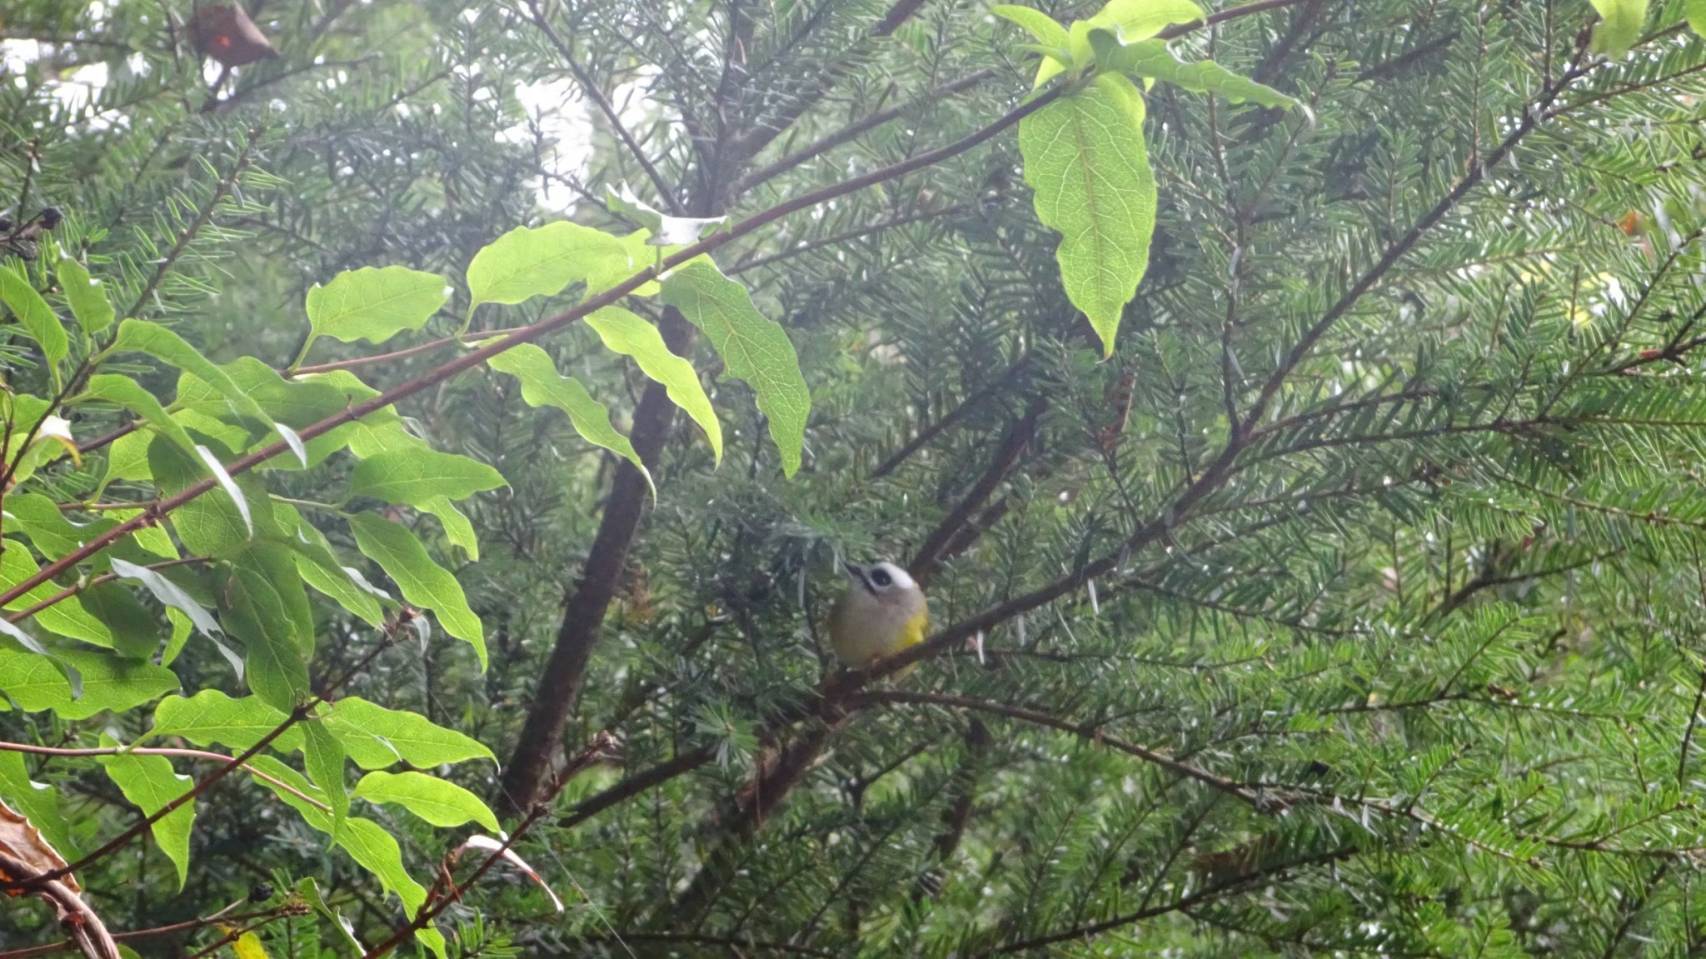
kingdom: Animalia
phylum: Chordata
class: Aves
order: Passeriformes
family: Regulidae
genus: Regulus
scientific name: Regulus goodfellowi
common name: Flamecrest
